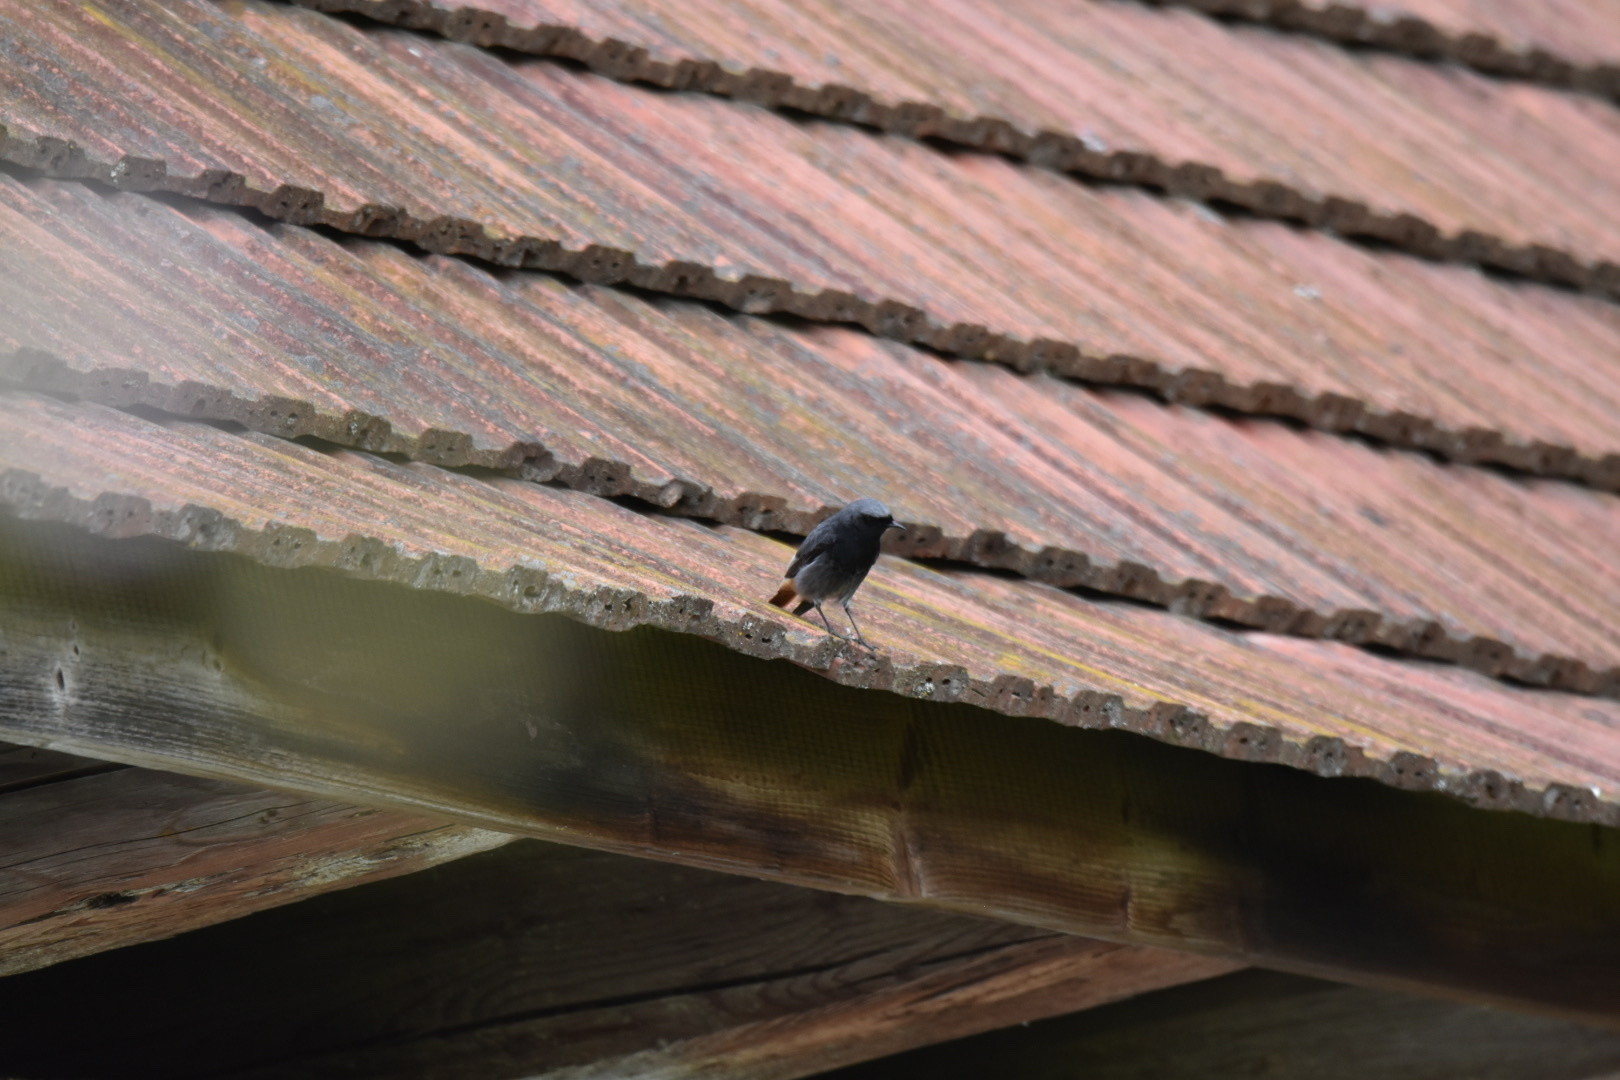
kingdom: Animalia
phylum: Chordata
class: Aves
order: Passeriformes
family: Muscicapidae
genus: Phoenicurus
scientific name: Phoenicurus ochruros
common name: Black redstart
